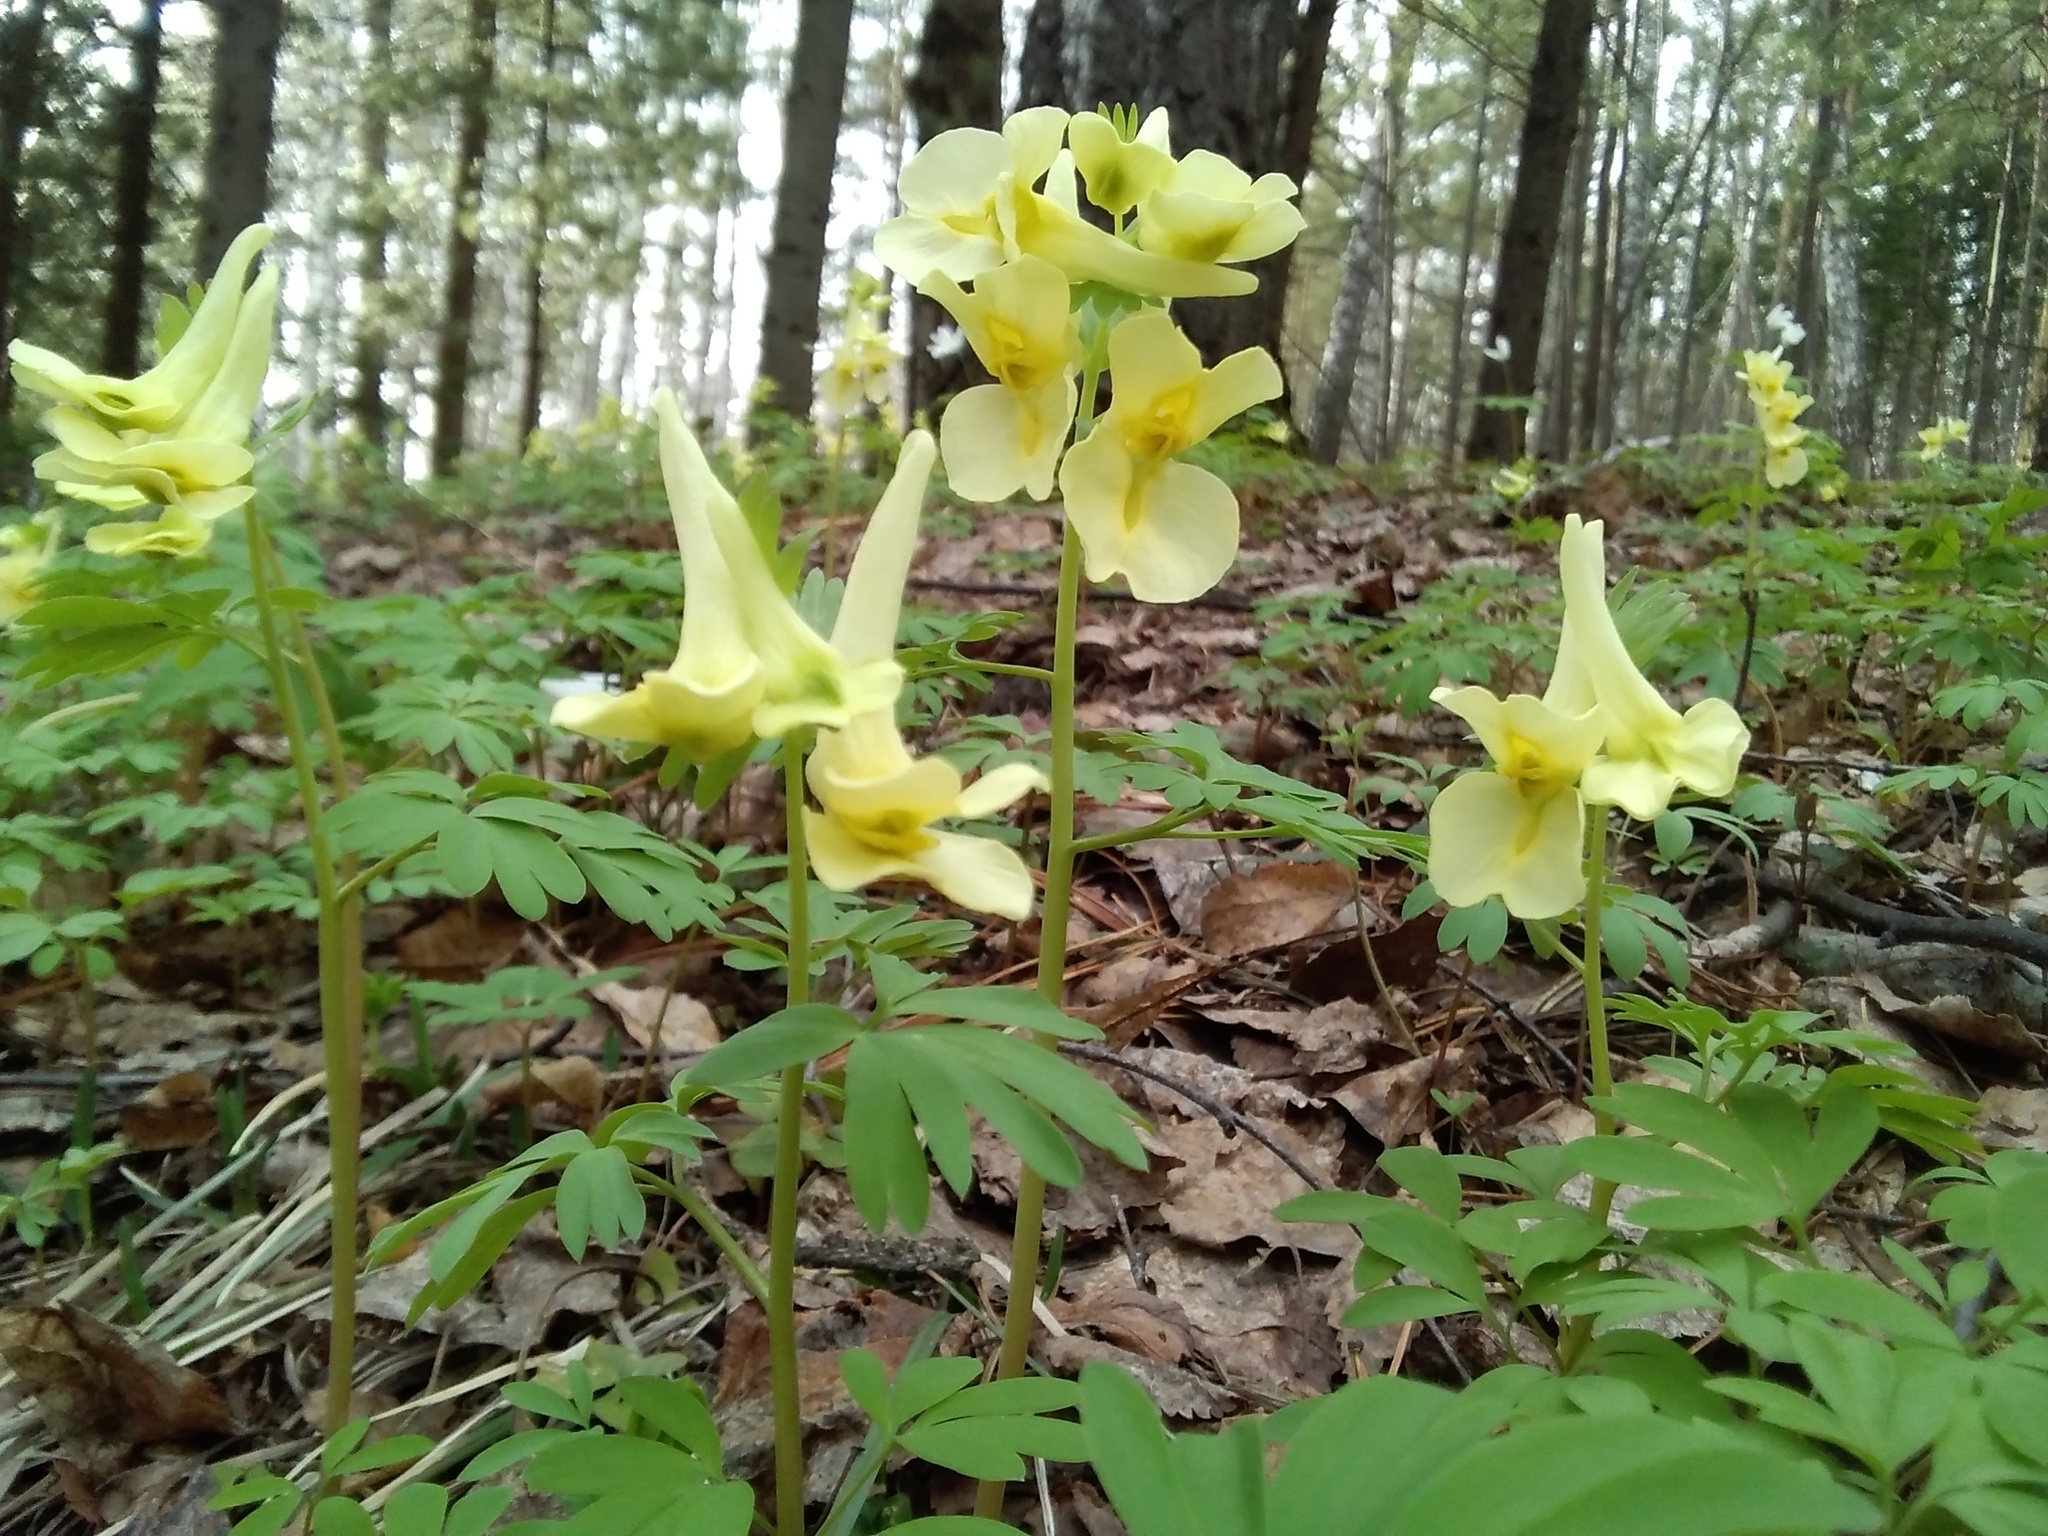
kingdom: Plantae
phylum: Tracheophyta
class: Magnoliopsida
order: Ranunculales
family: Papaveraceae
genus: Corydalis
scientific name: Corydalis bracteata
